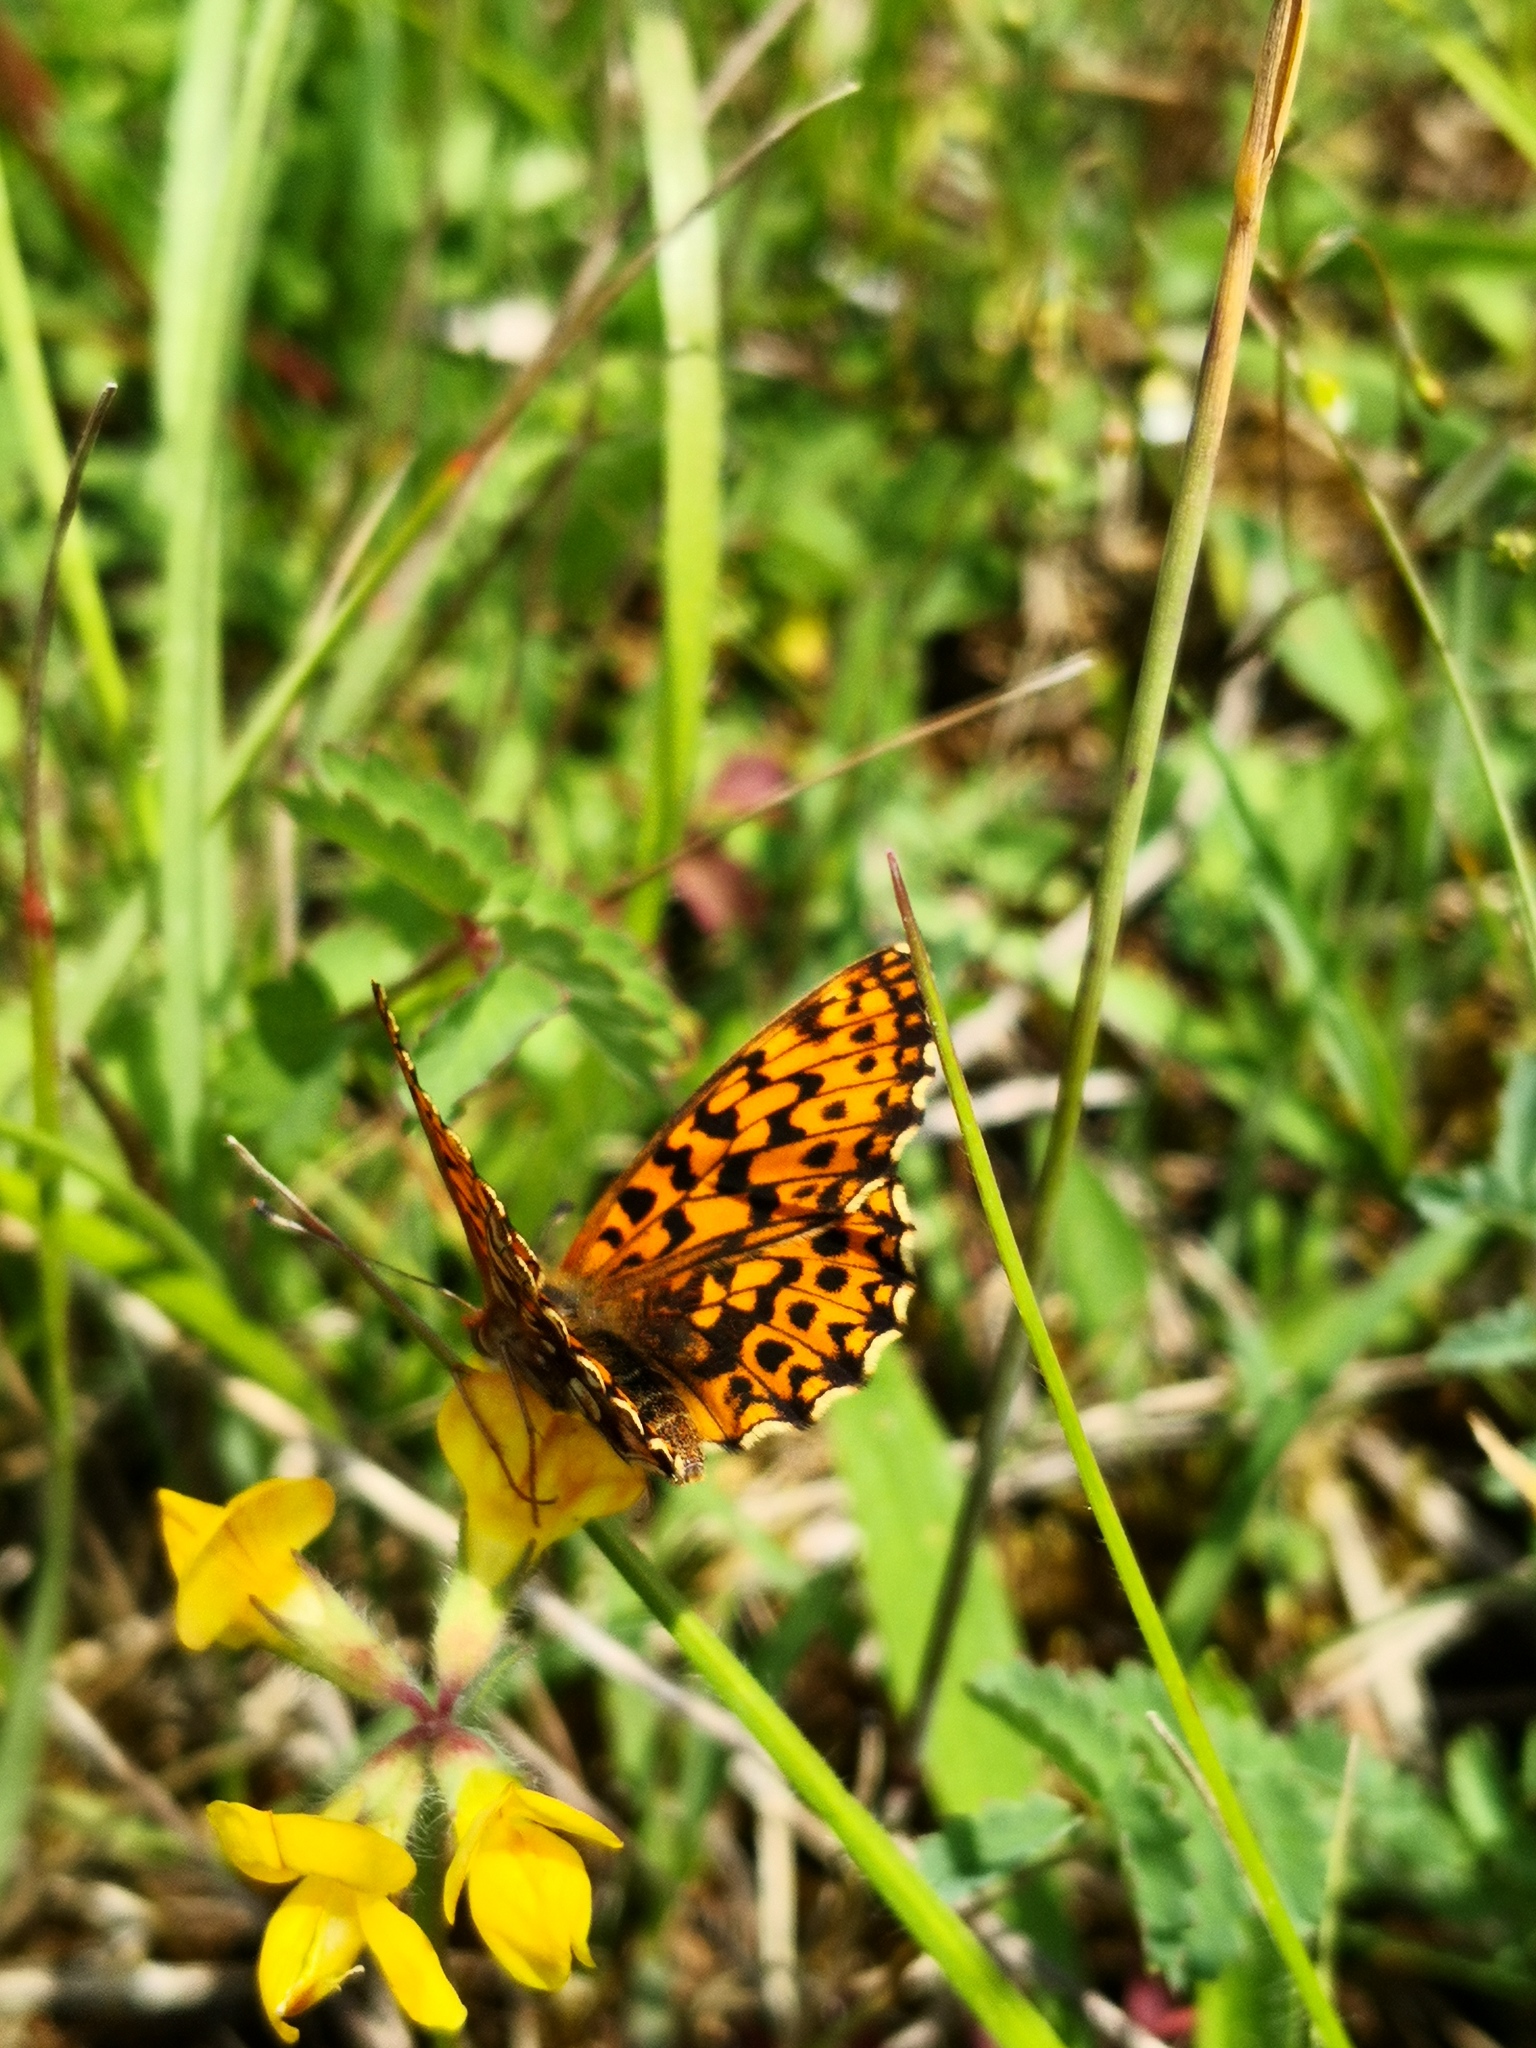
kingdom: Animalia
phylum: Arthropoda
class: Insecta
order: Lepidoptera
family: Nymphalidae
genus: Boloria
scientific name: Boloria dia
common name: Weaver's fritillary
